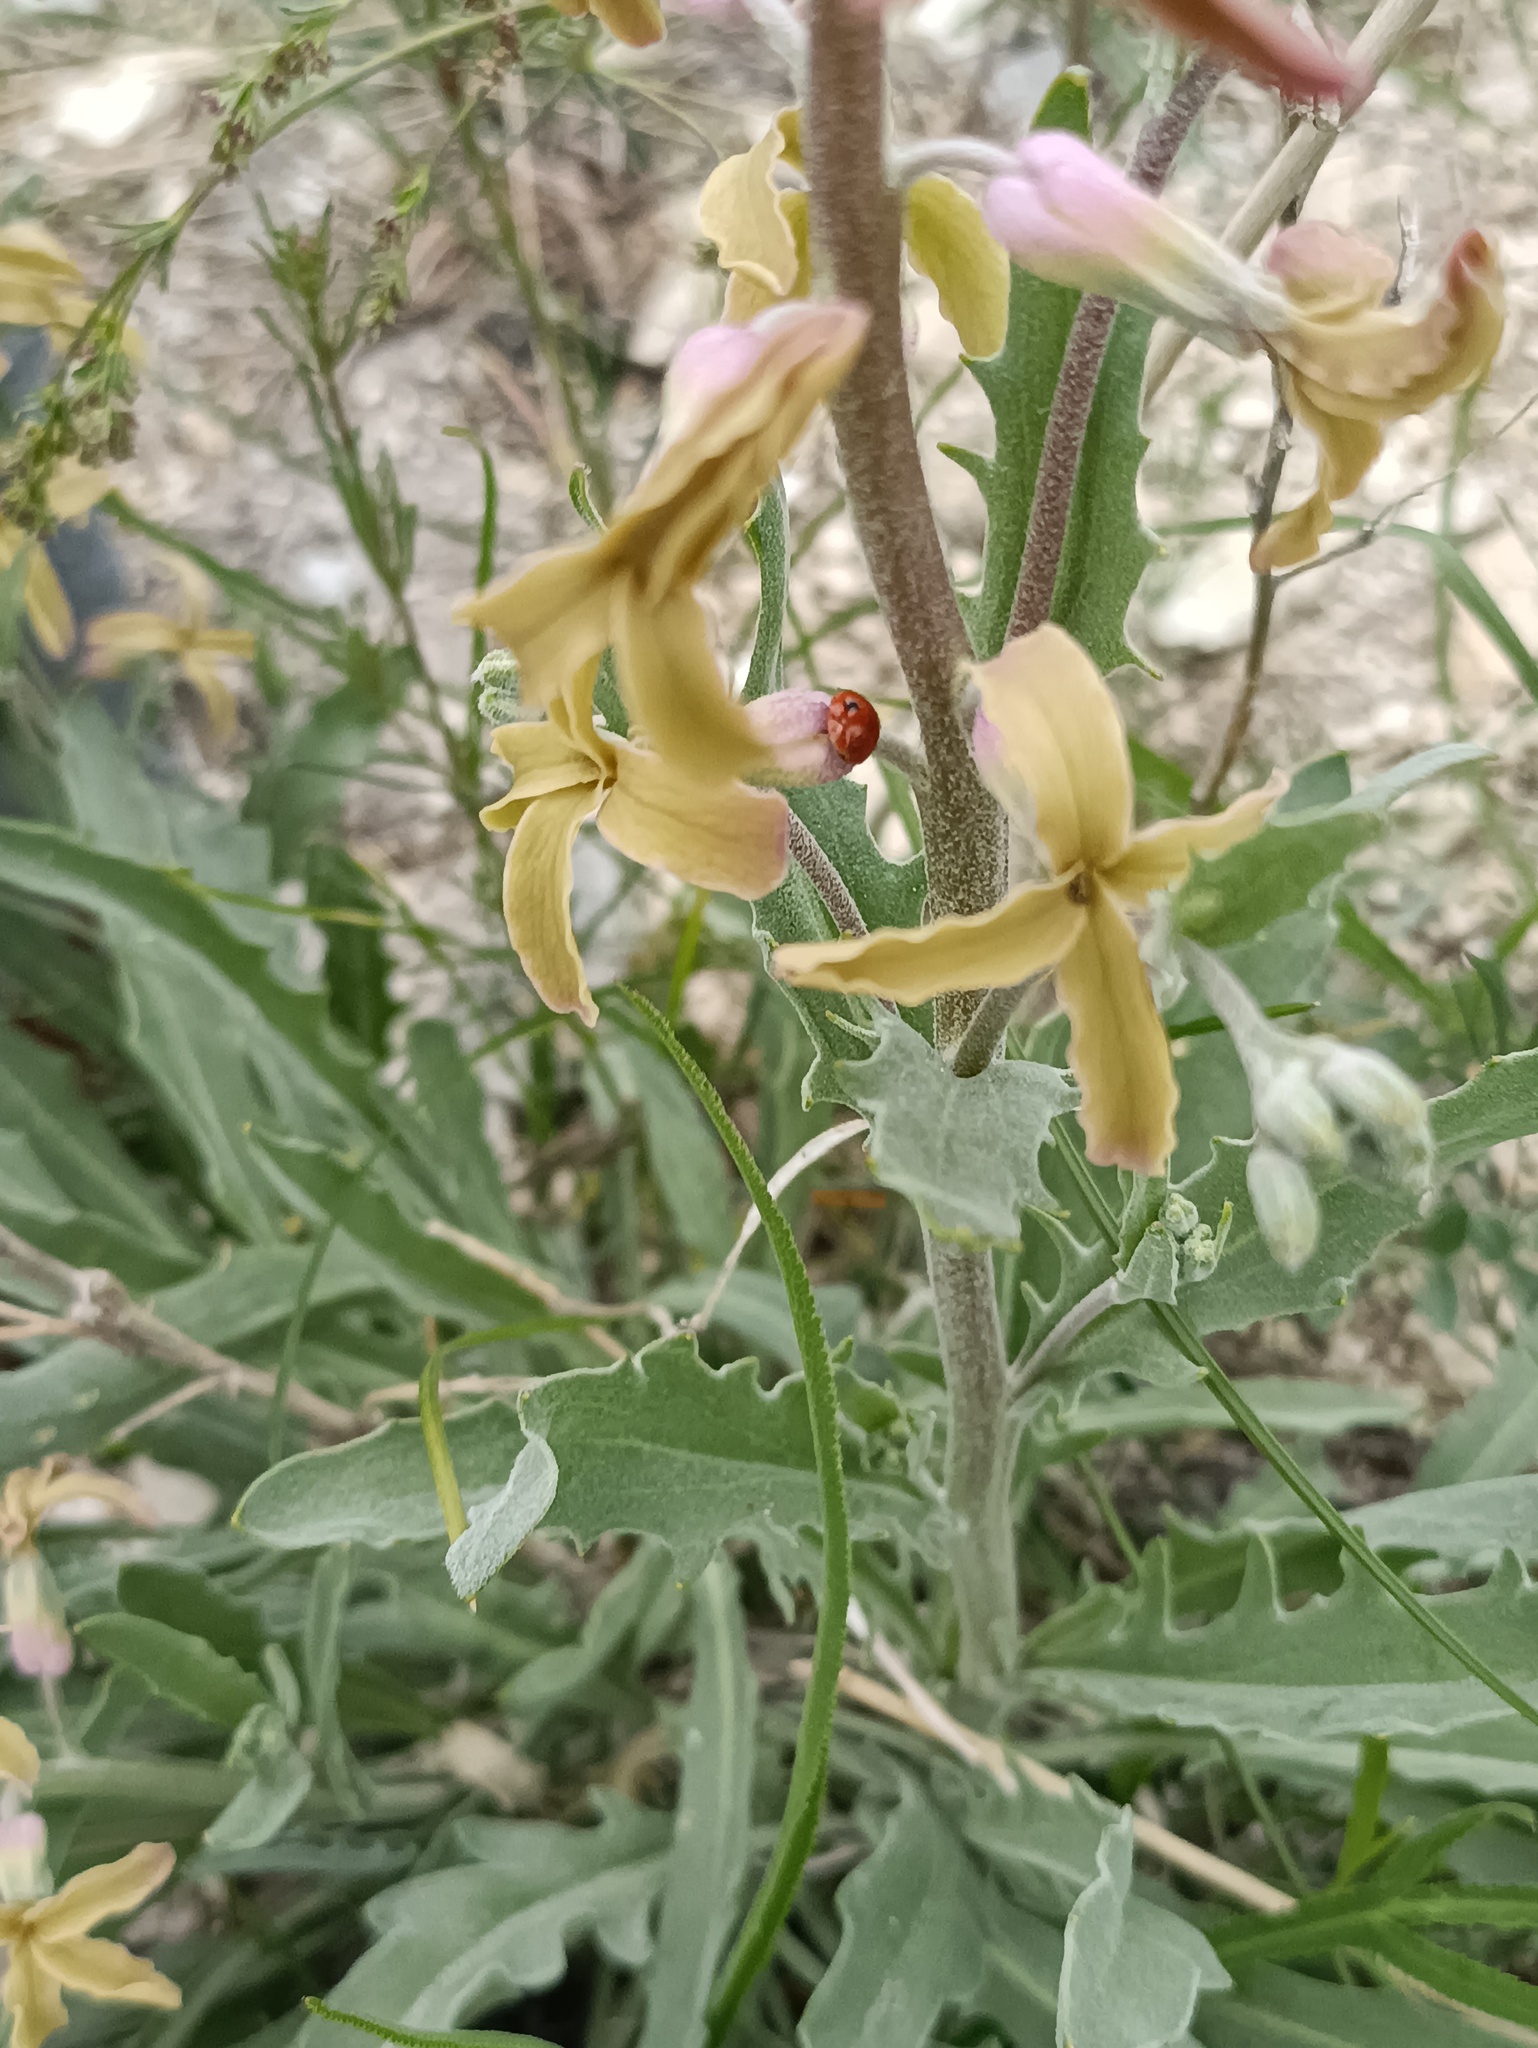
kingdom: Plantae
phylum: Tracheophyta
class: Magnoliopsida
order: Brassicales
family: Brassicaceae
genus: Matthiola
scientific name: Matthiola fragrans
